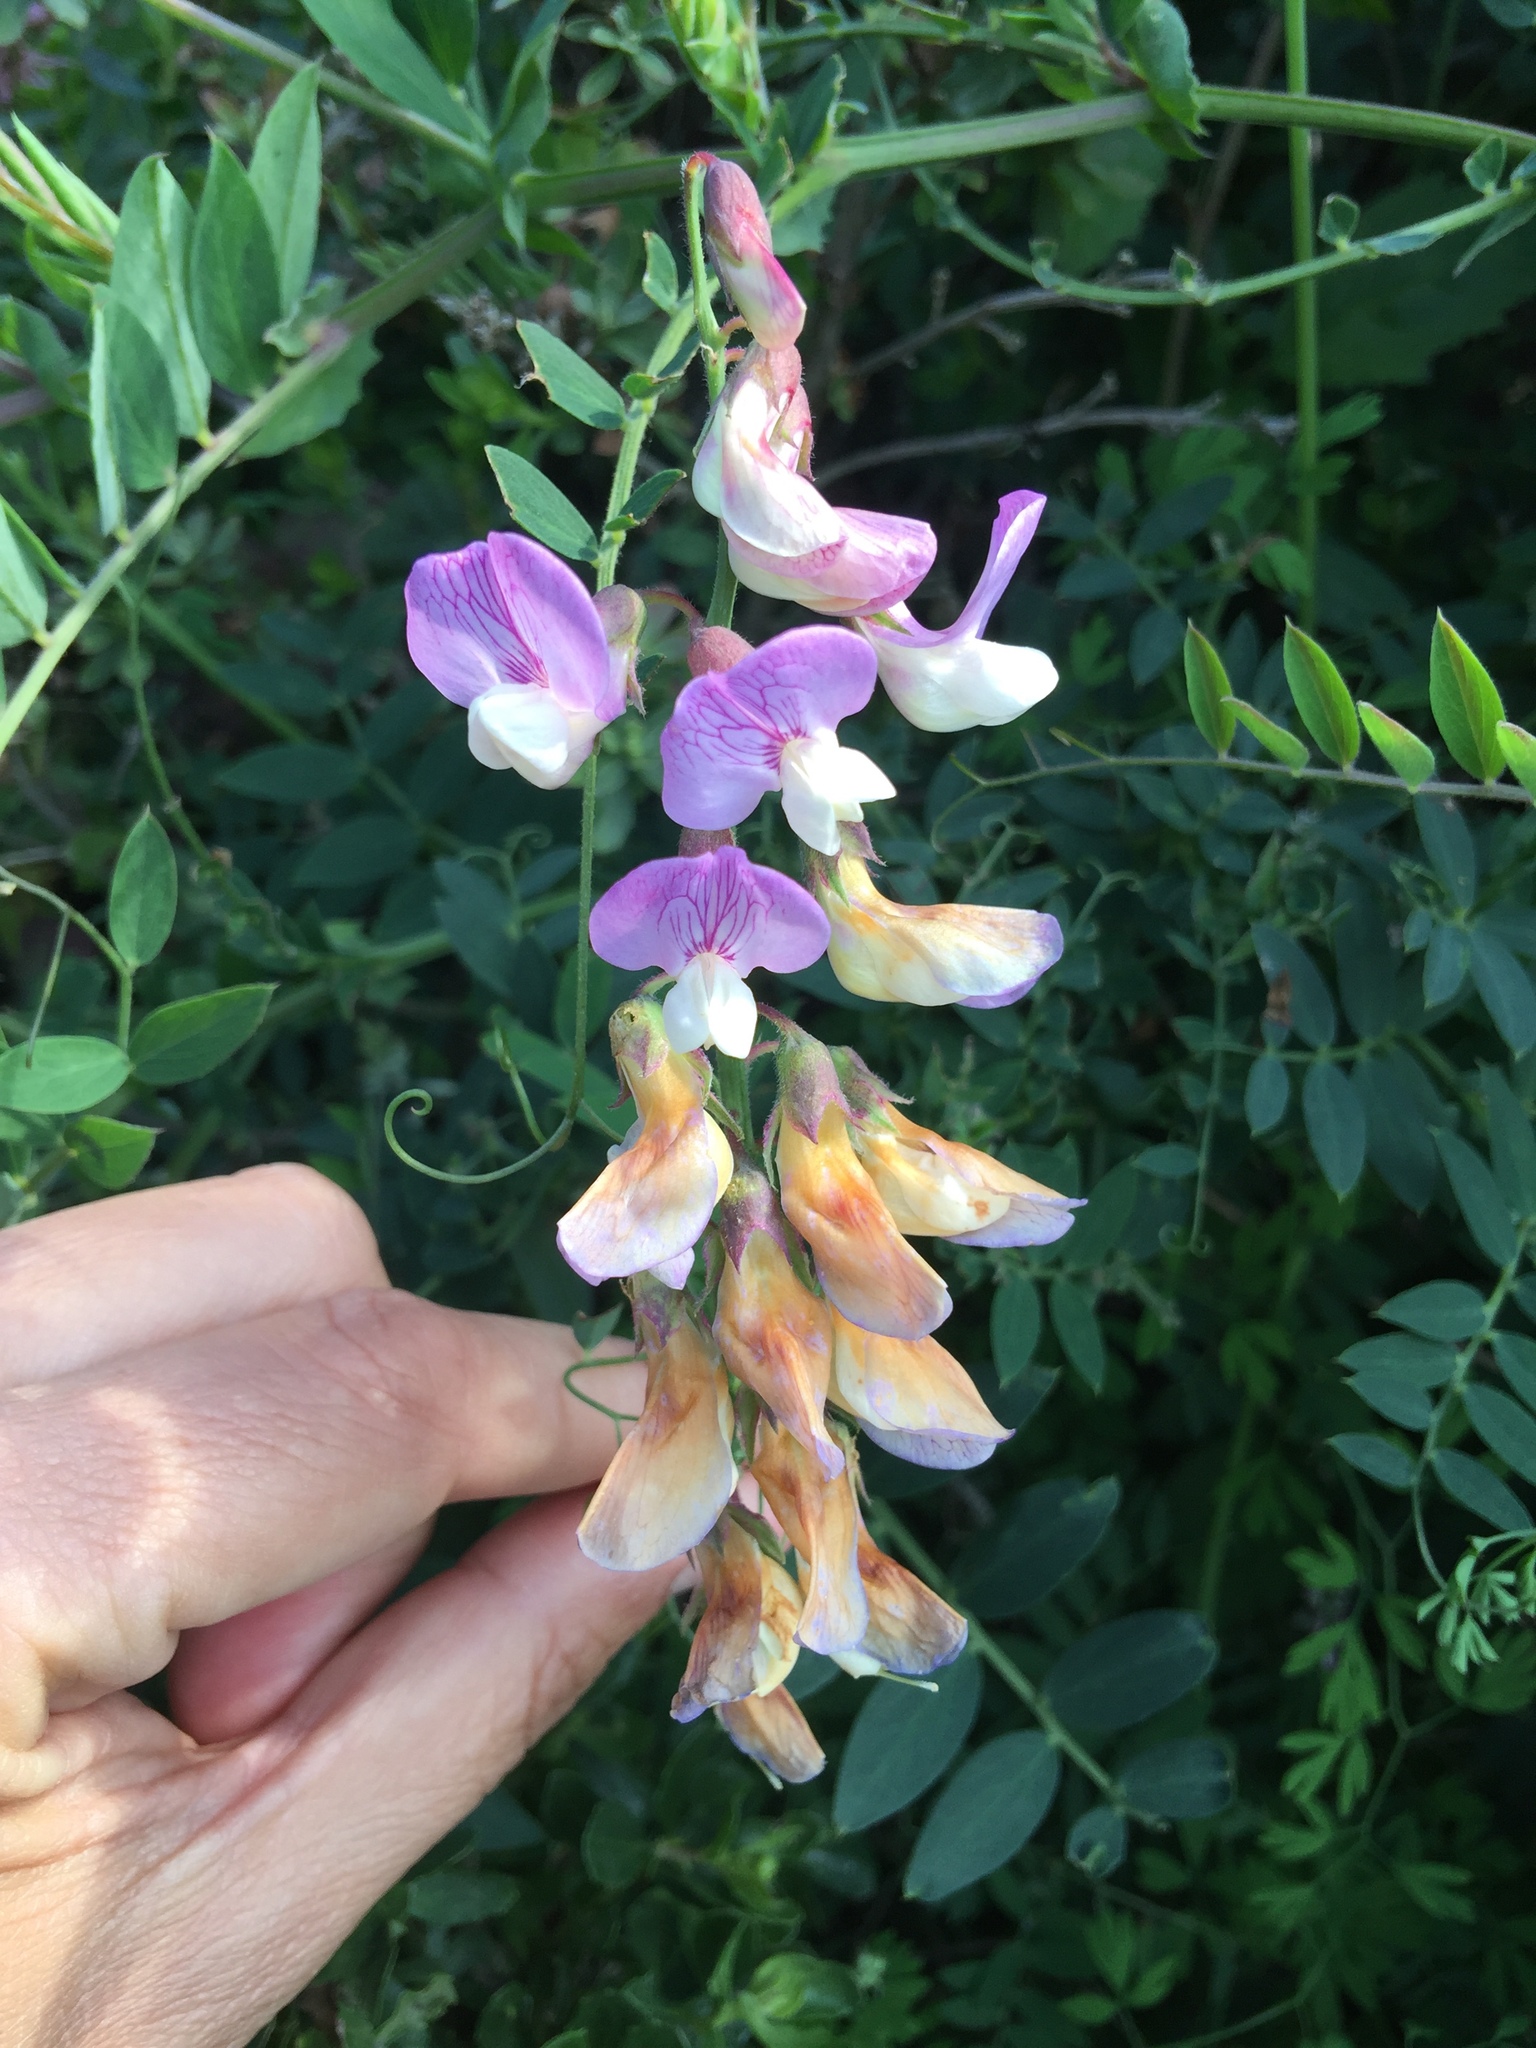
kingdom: Plantae
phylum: Tracheophyta
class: Magnoliopsida
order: Fabales
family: Fabaceae
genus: Lathyrus
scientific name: Lathyrus vestitus
